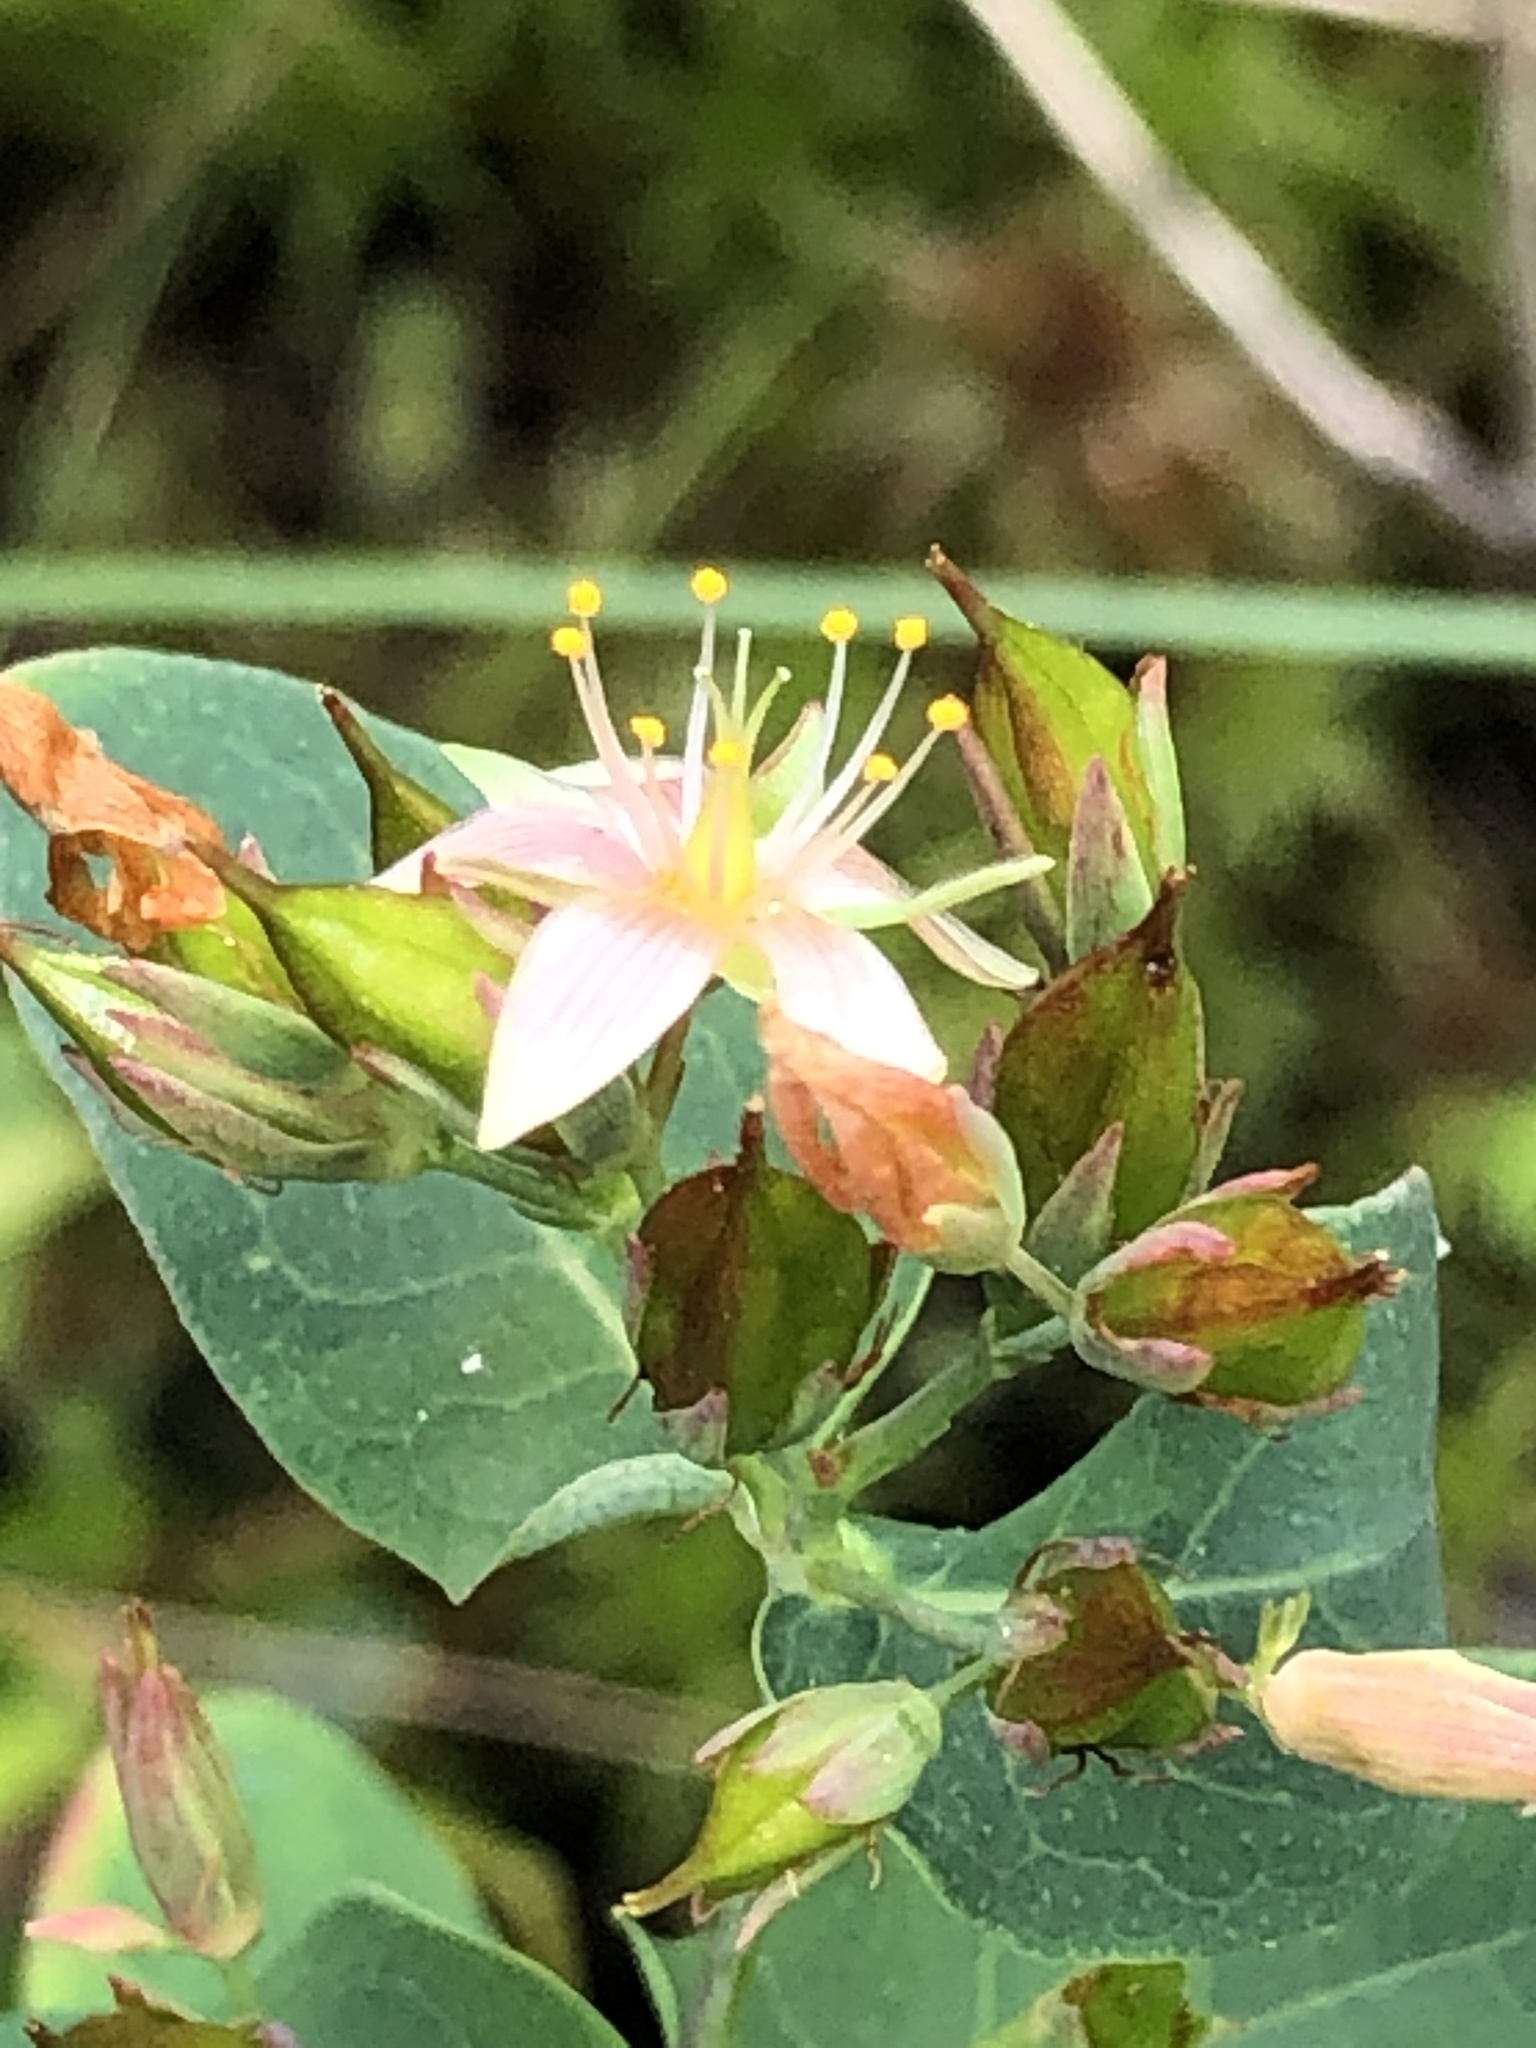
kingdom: Plantae
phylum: Tracheophyta
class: Magnoliopsida
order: Malpighiales
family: Hypericaceae
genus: Triadenum
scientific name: Triadenum virginicum
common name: Marsh st. john's-wort
